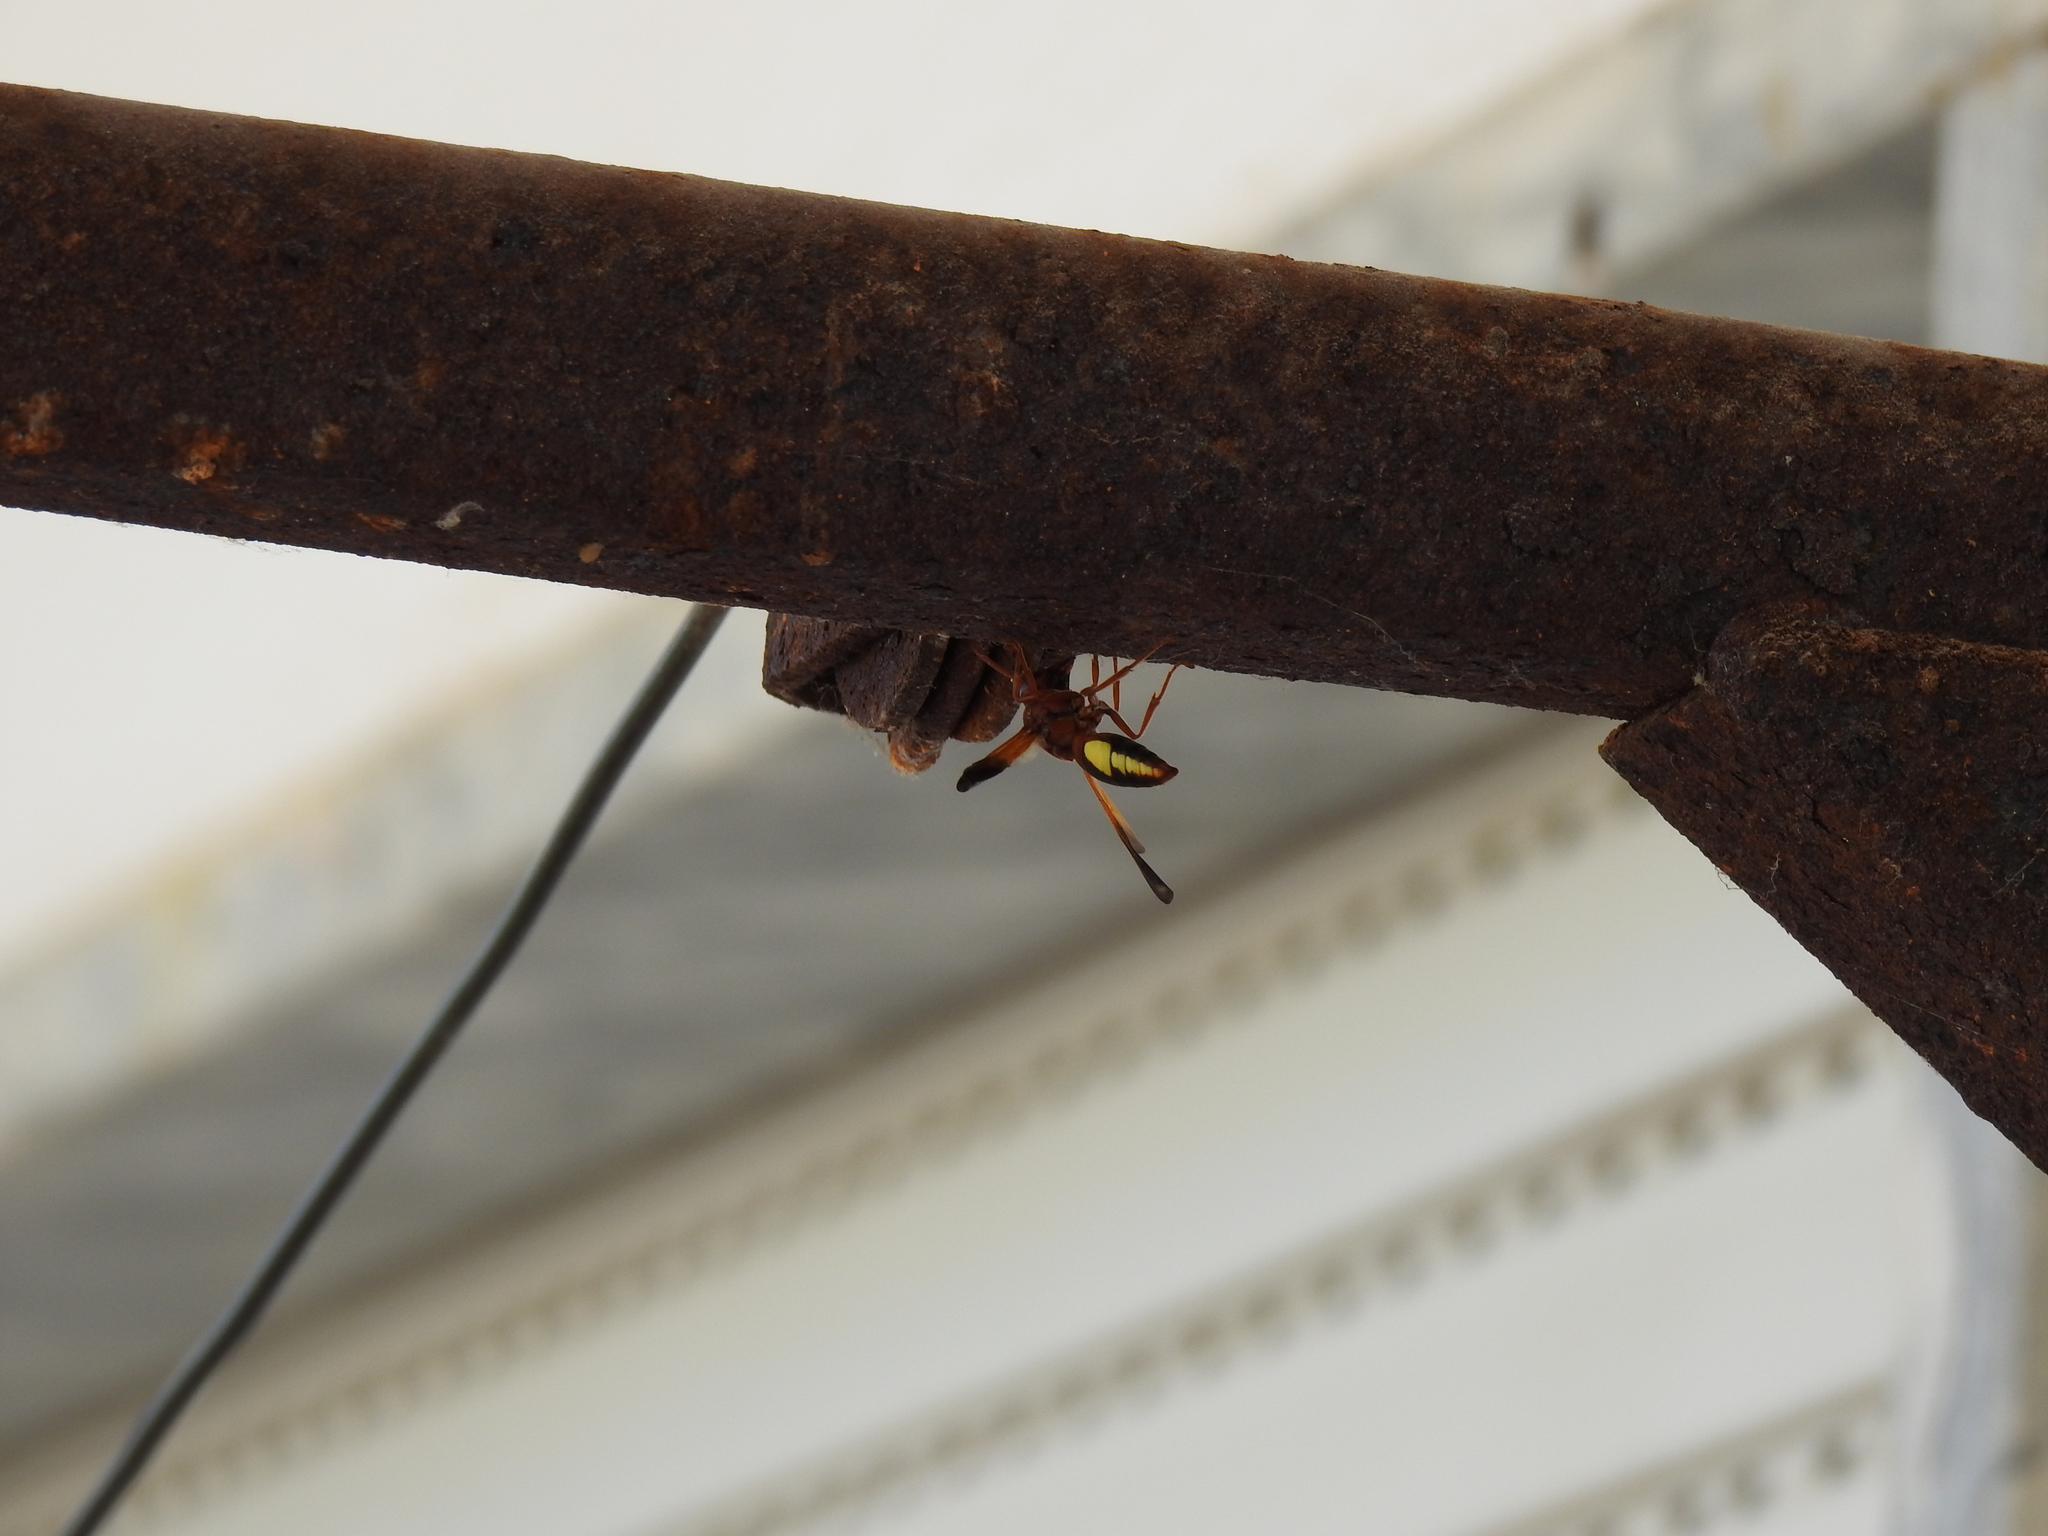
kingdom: Animalia
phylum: Arthropoda
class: Insecta
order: Hymenoptera
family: Eumenidae
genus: Rhynchium
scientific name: Rhynchium oculatum
